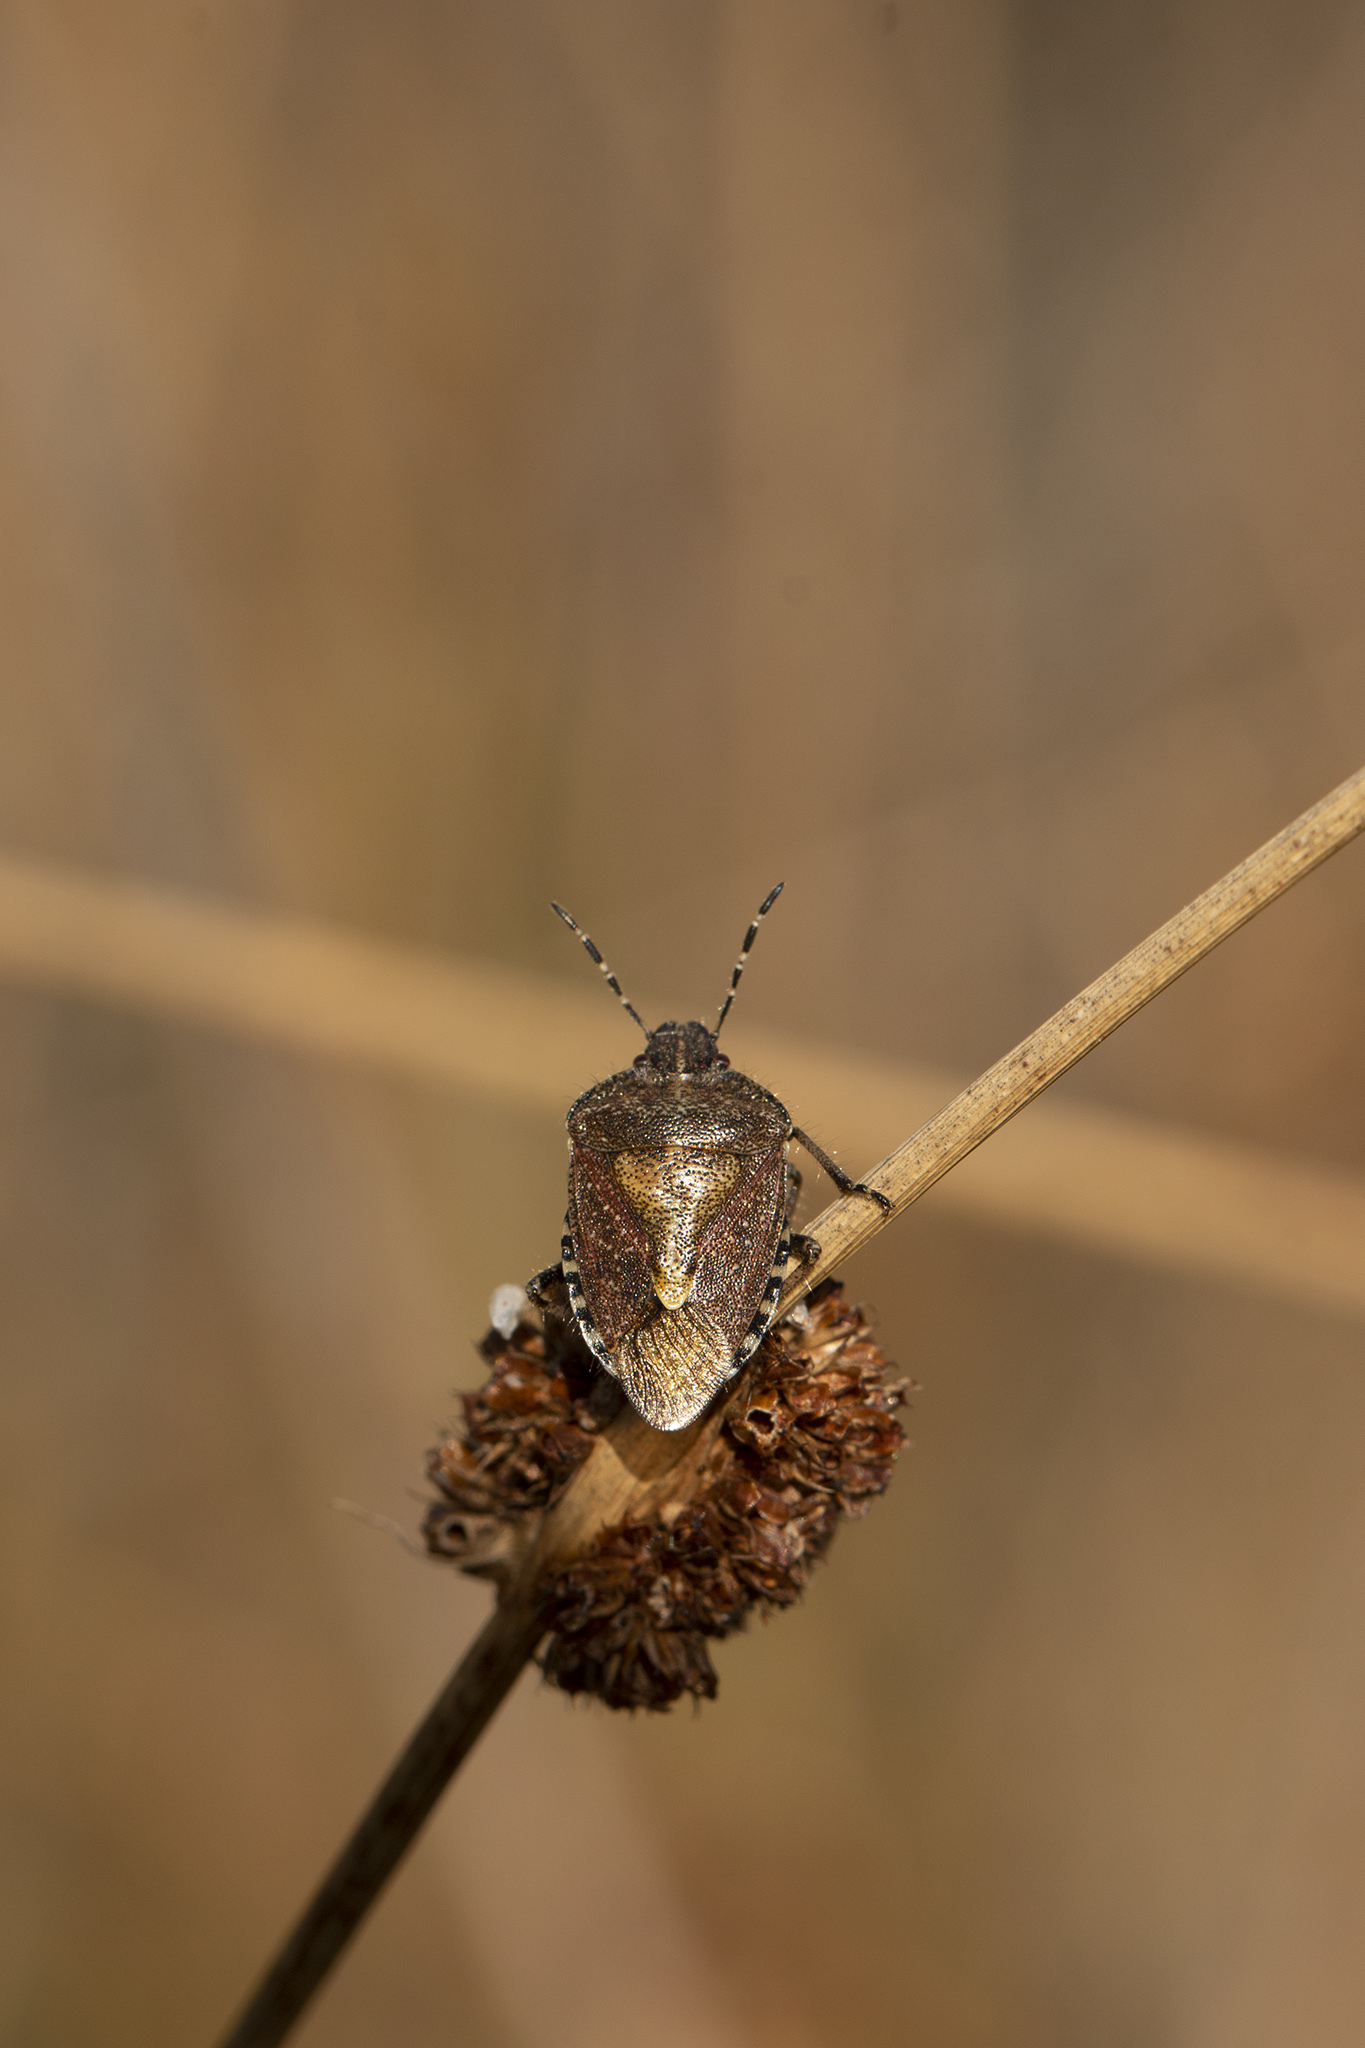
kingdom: Animalia
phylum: Arthropoda
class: Insecta
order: Hemiptera
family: Pentatomidae
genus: Dolycoris
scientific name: Dolycoris baccarum
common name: Sloe bug
